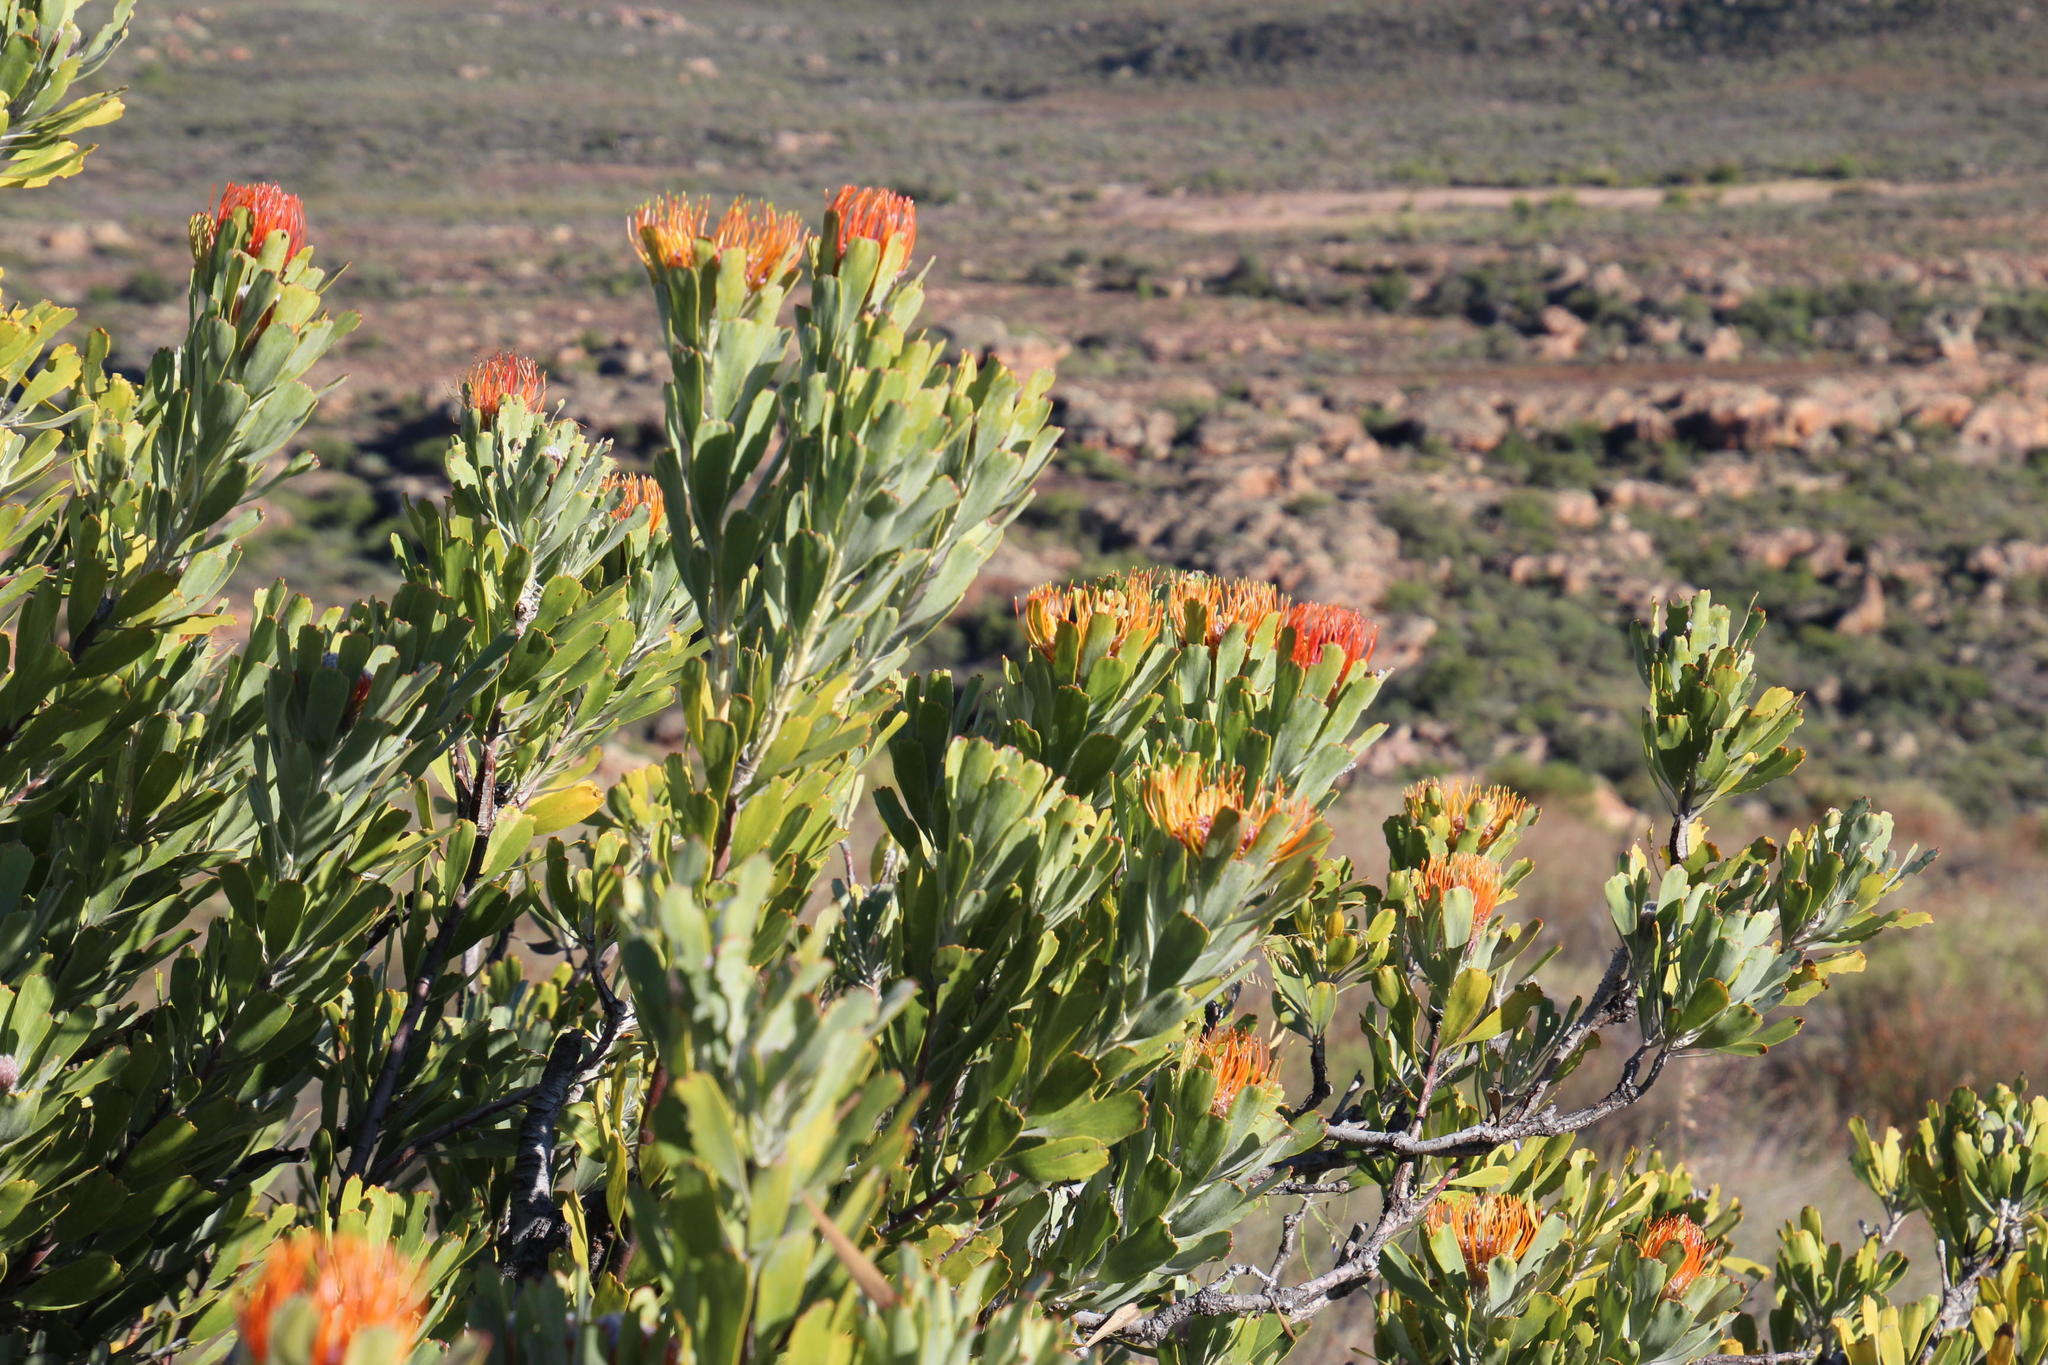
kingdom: Plantae
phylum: Tracheophyta
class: Magnoliopsida
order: Proteales
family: Proteaceae
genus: Leucospermum
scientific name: Leucospermum praemorsum
